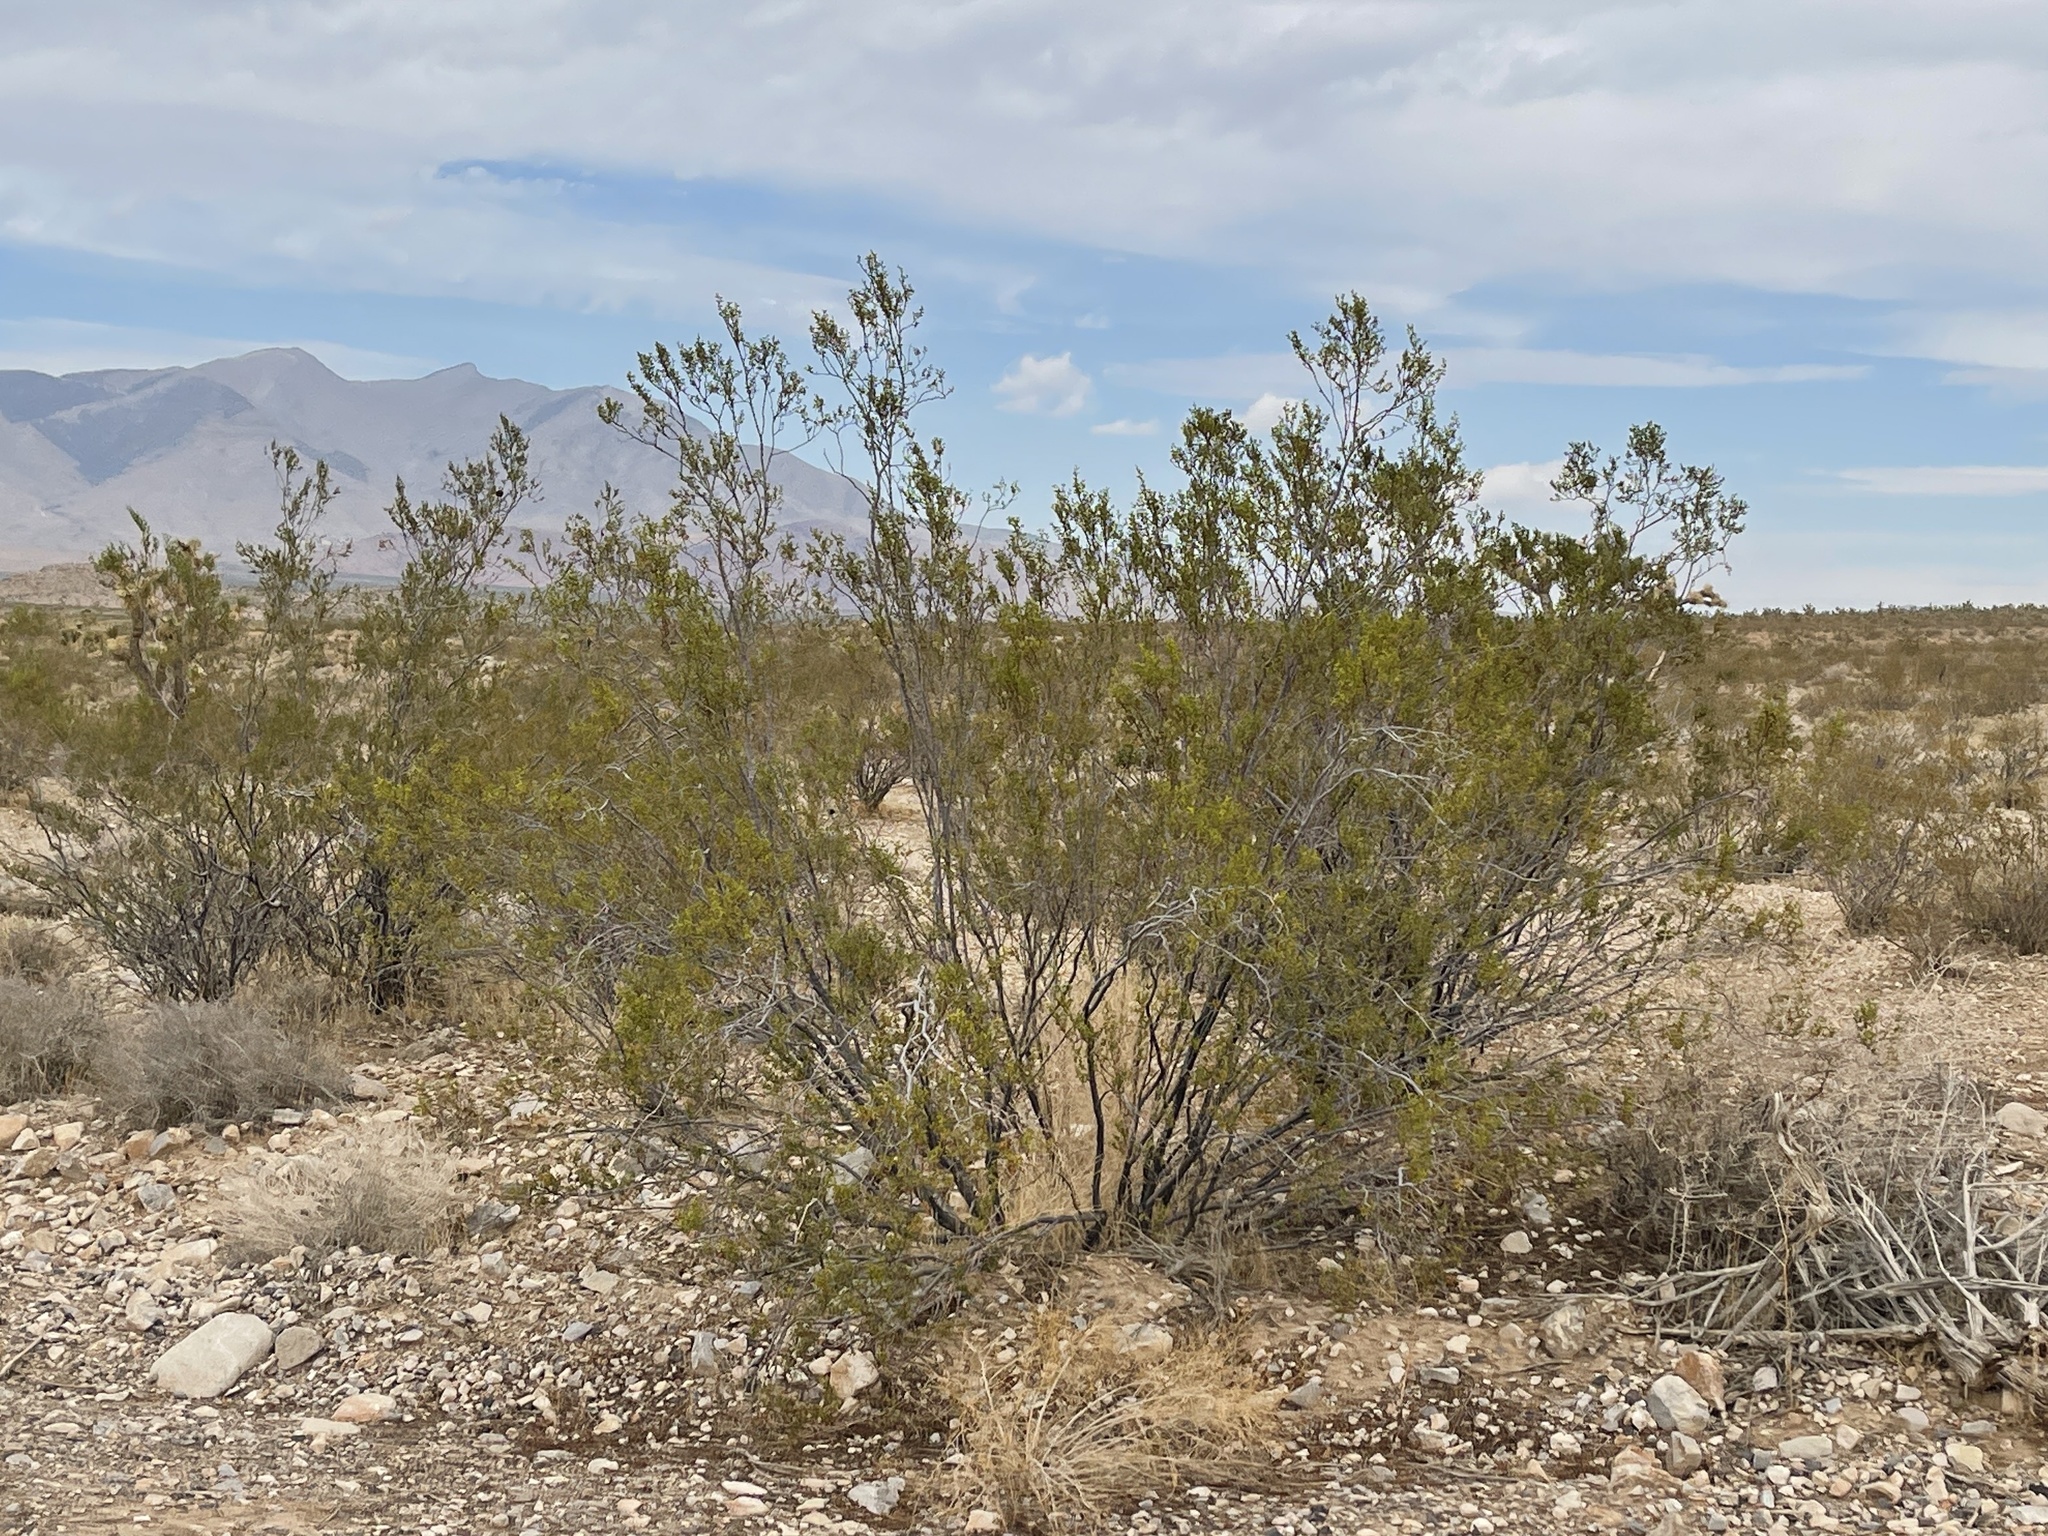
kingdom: Plantae
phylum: Tracheophyta
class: Magnoliopsida
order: Zygophyllales
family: Zygophyllaceae
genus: Larrea
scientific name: Larrea tridentata
